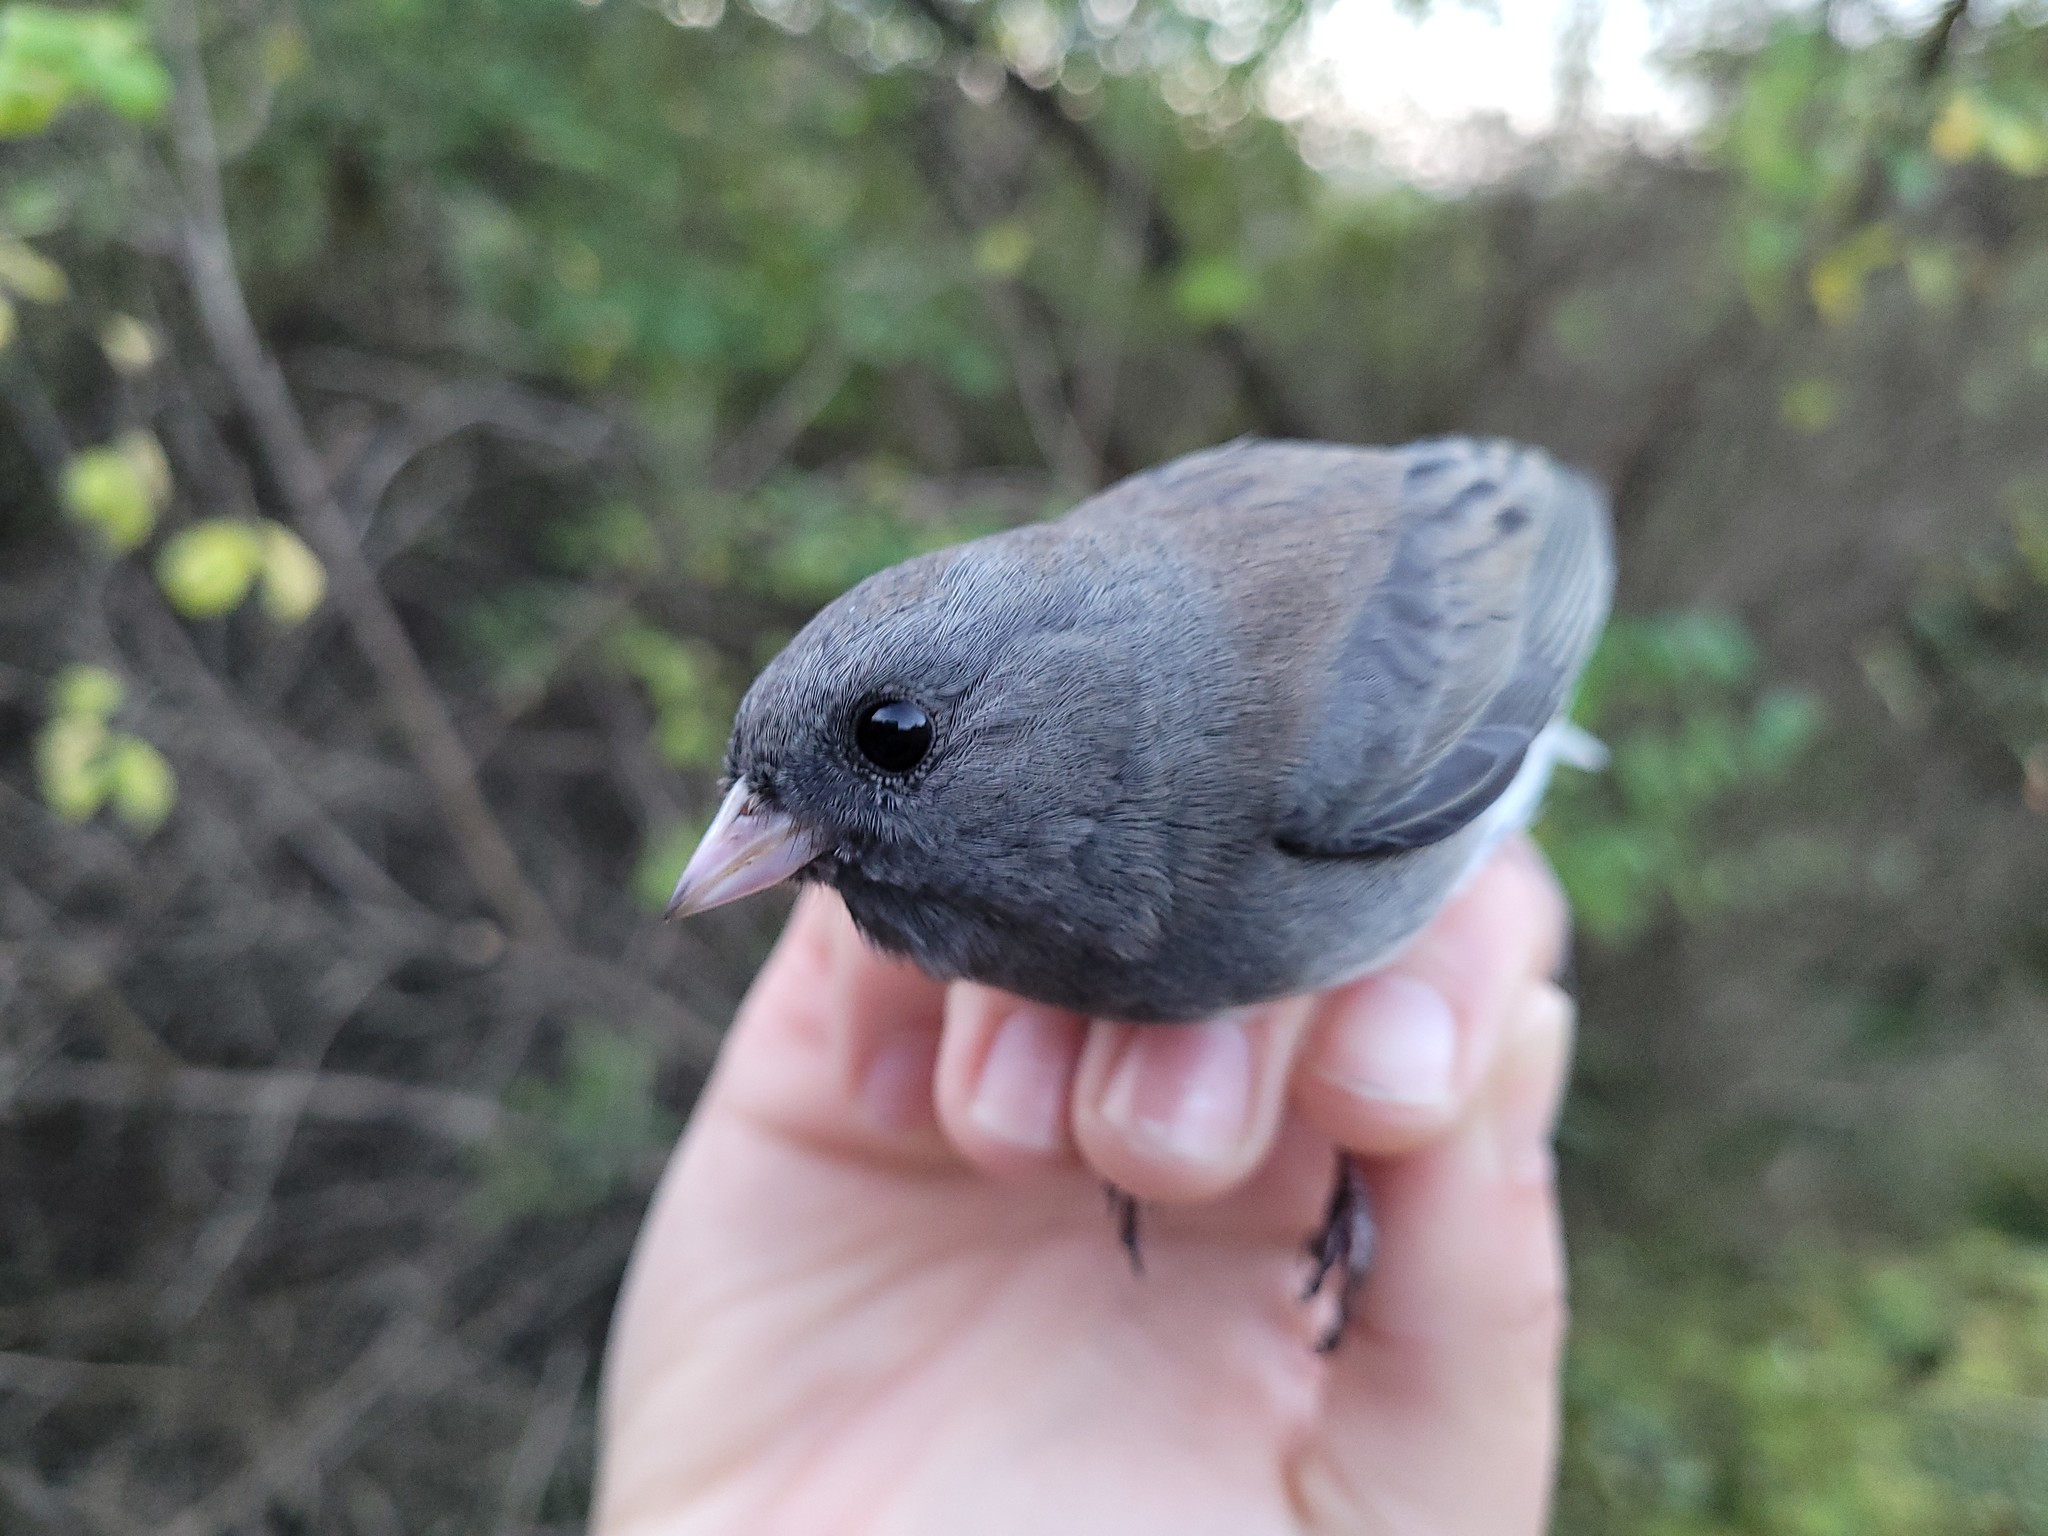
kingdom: Animalia
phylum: Chordata
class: Aves
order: Passeriformes
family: Passerellidae
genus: Junco
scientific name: Junco hyemalis
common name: Dark-eyed junco
